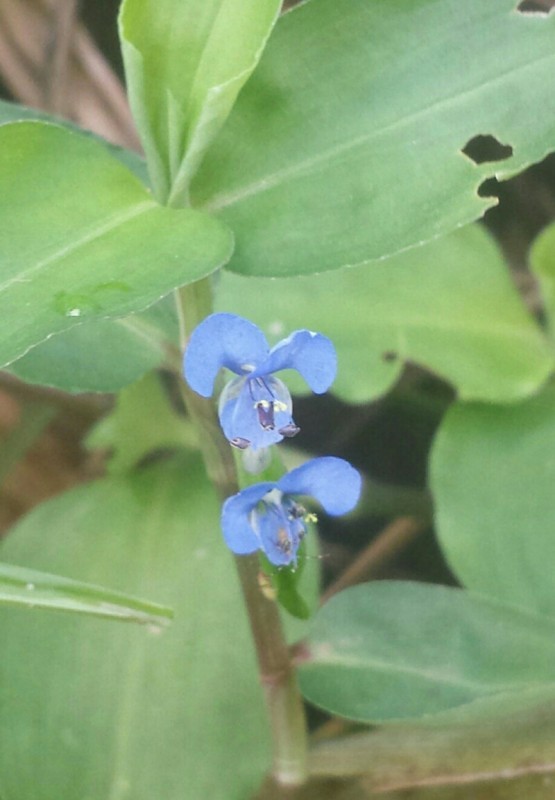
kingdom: Plantae
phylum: Tracheophyta
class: Liliopsida
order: Commelinales
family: Commelinaceae
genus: Commelina
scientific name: Commelina diffusa
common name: Climbing dayflower
